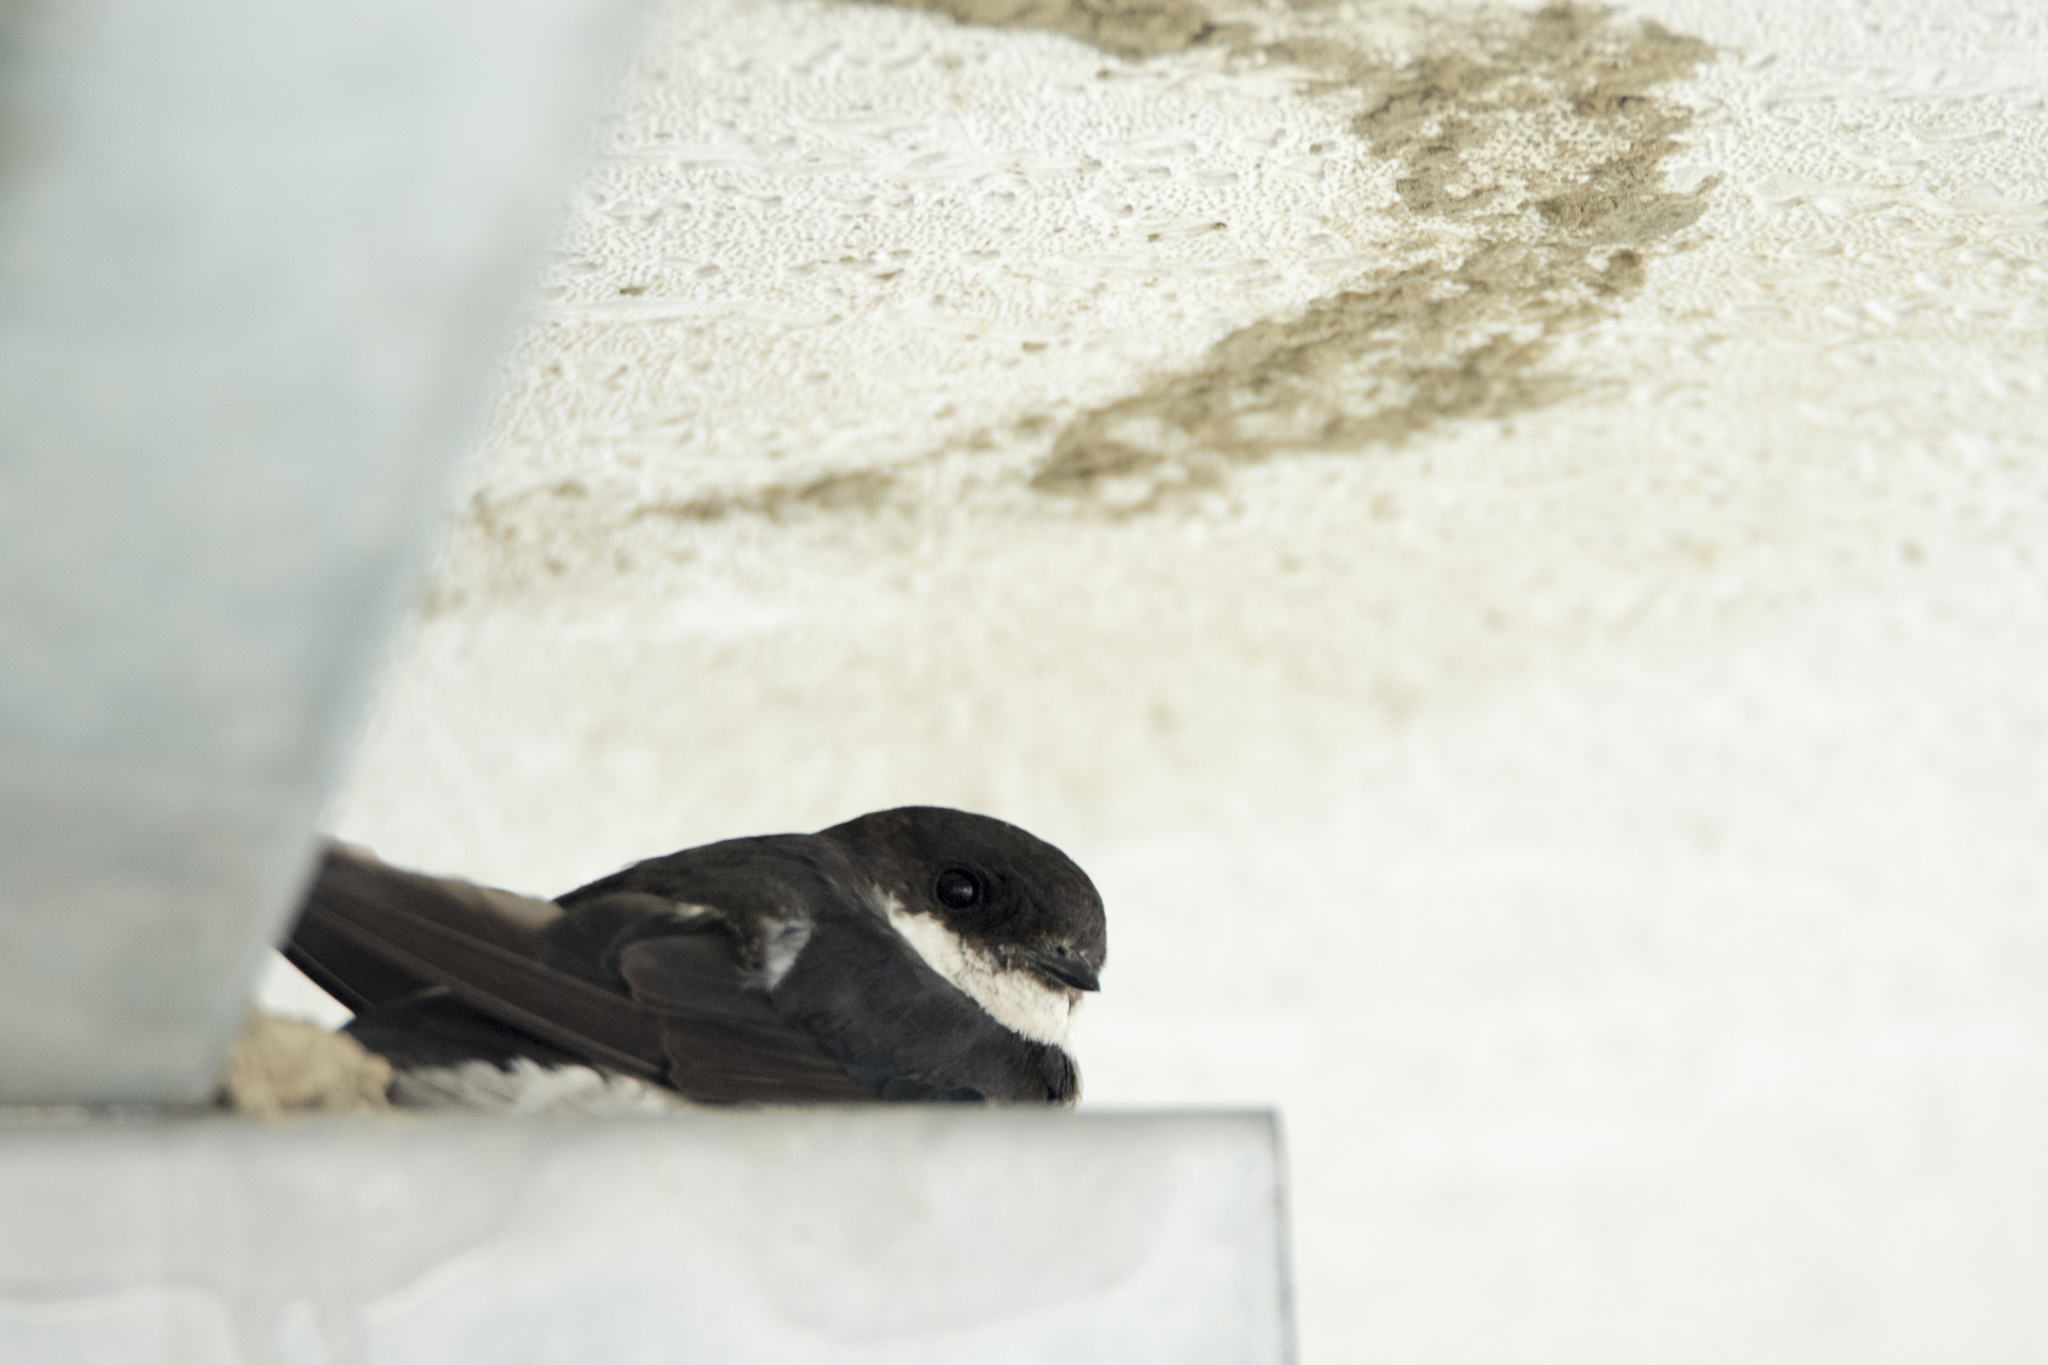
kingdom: Animalia
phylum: Chordata
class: Aves
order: Passeriformes
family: Hirundinidae
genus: Delichon
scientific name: Delichon dasypus
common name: Asian house martin
